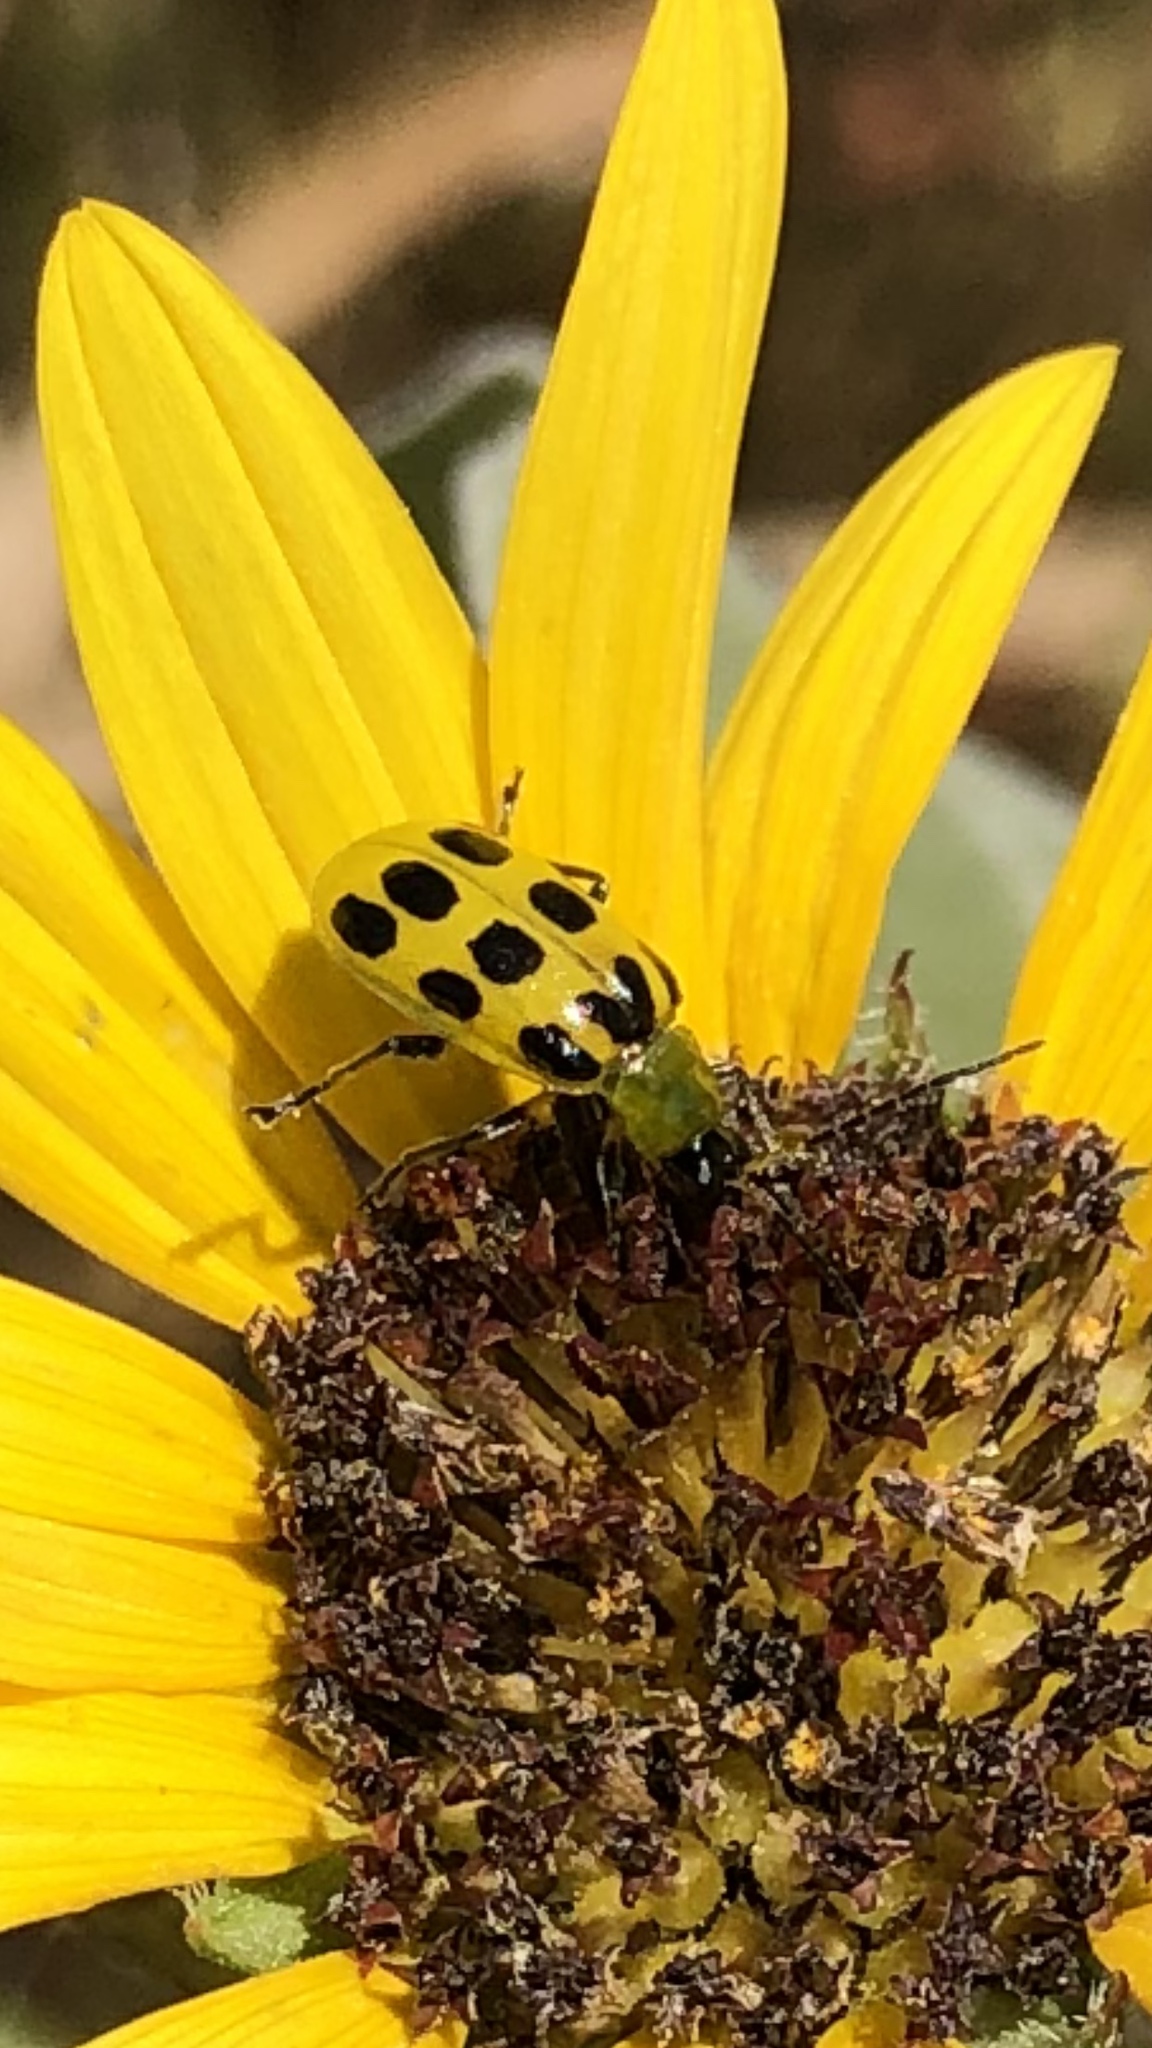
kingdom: Animalia
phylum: Arthropoda
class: Insecta
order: Coleoptera
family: Chrysomelidae
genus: Diabrotica
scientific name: Diabrotica undecimpunctata
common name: Spotted cucumber beetle
